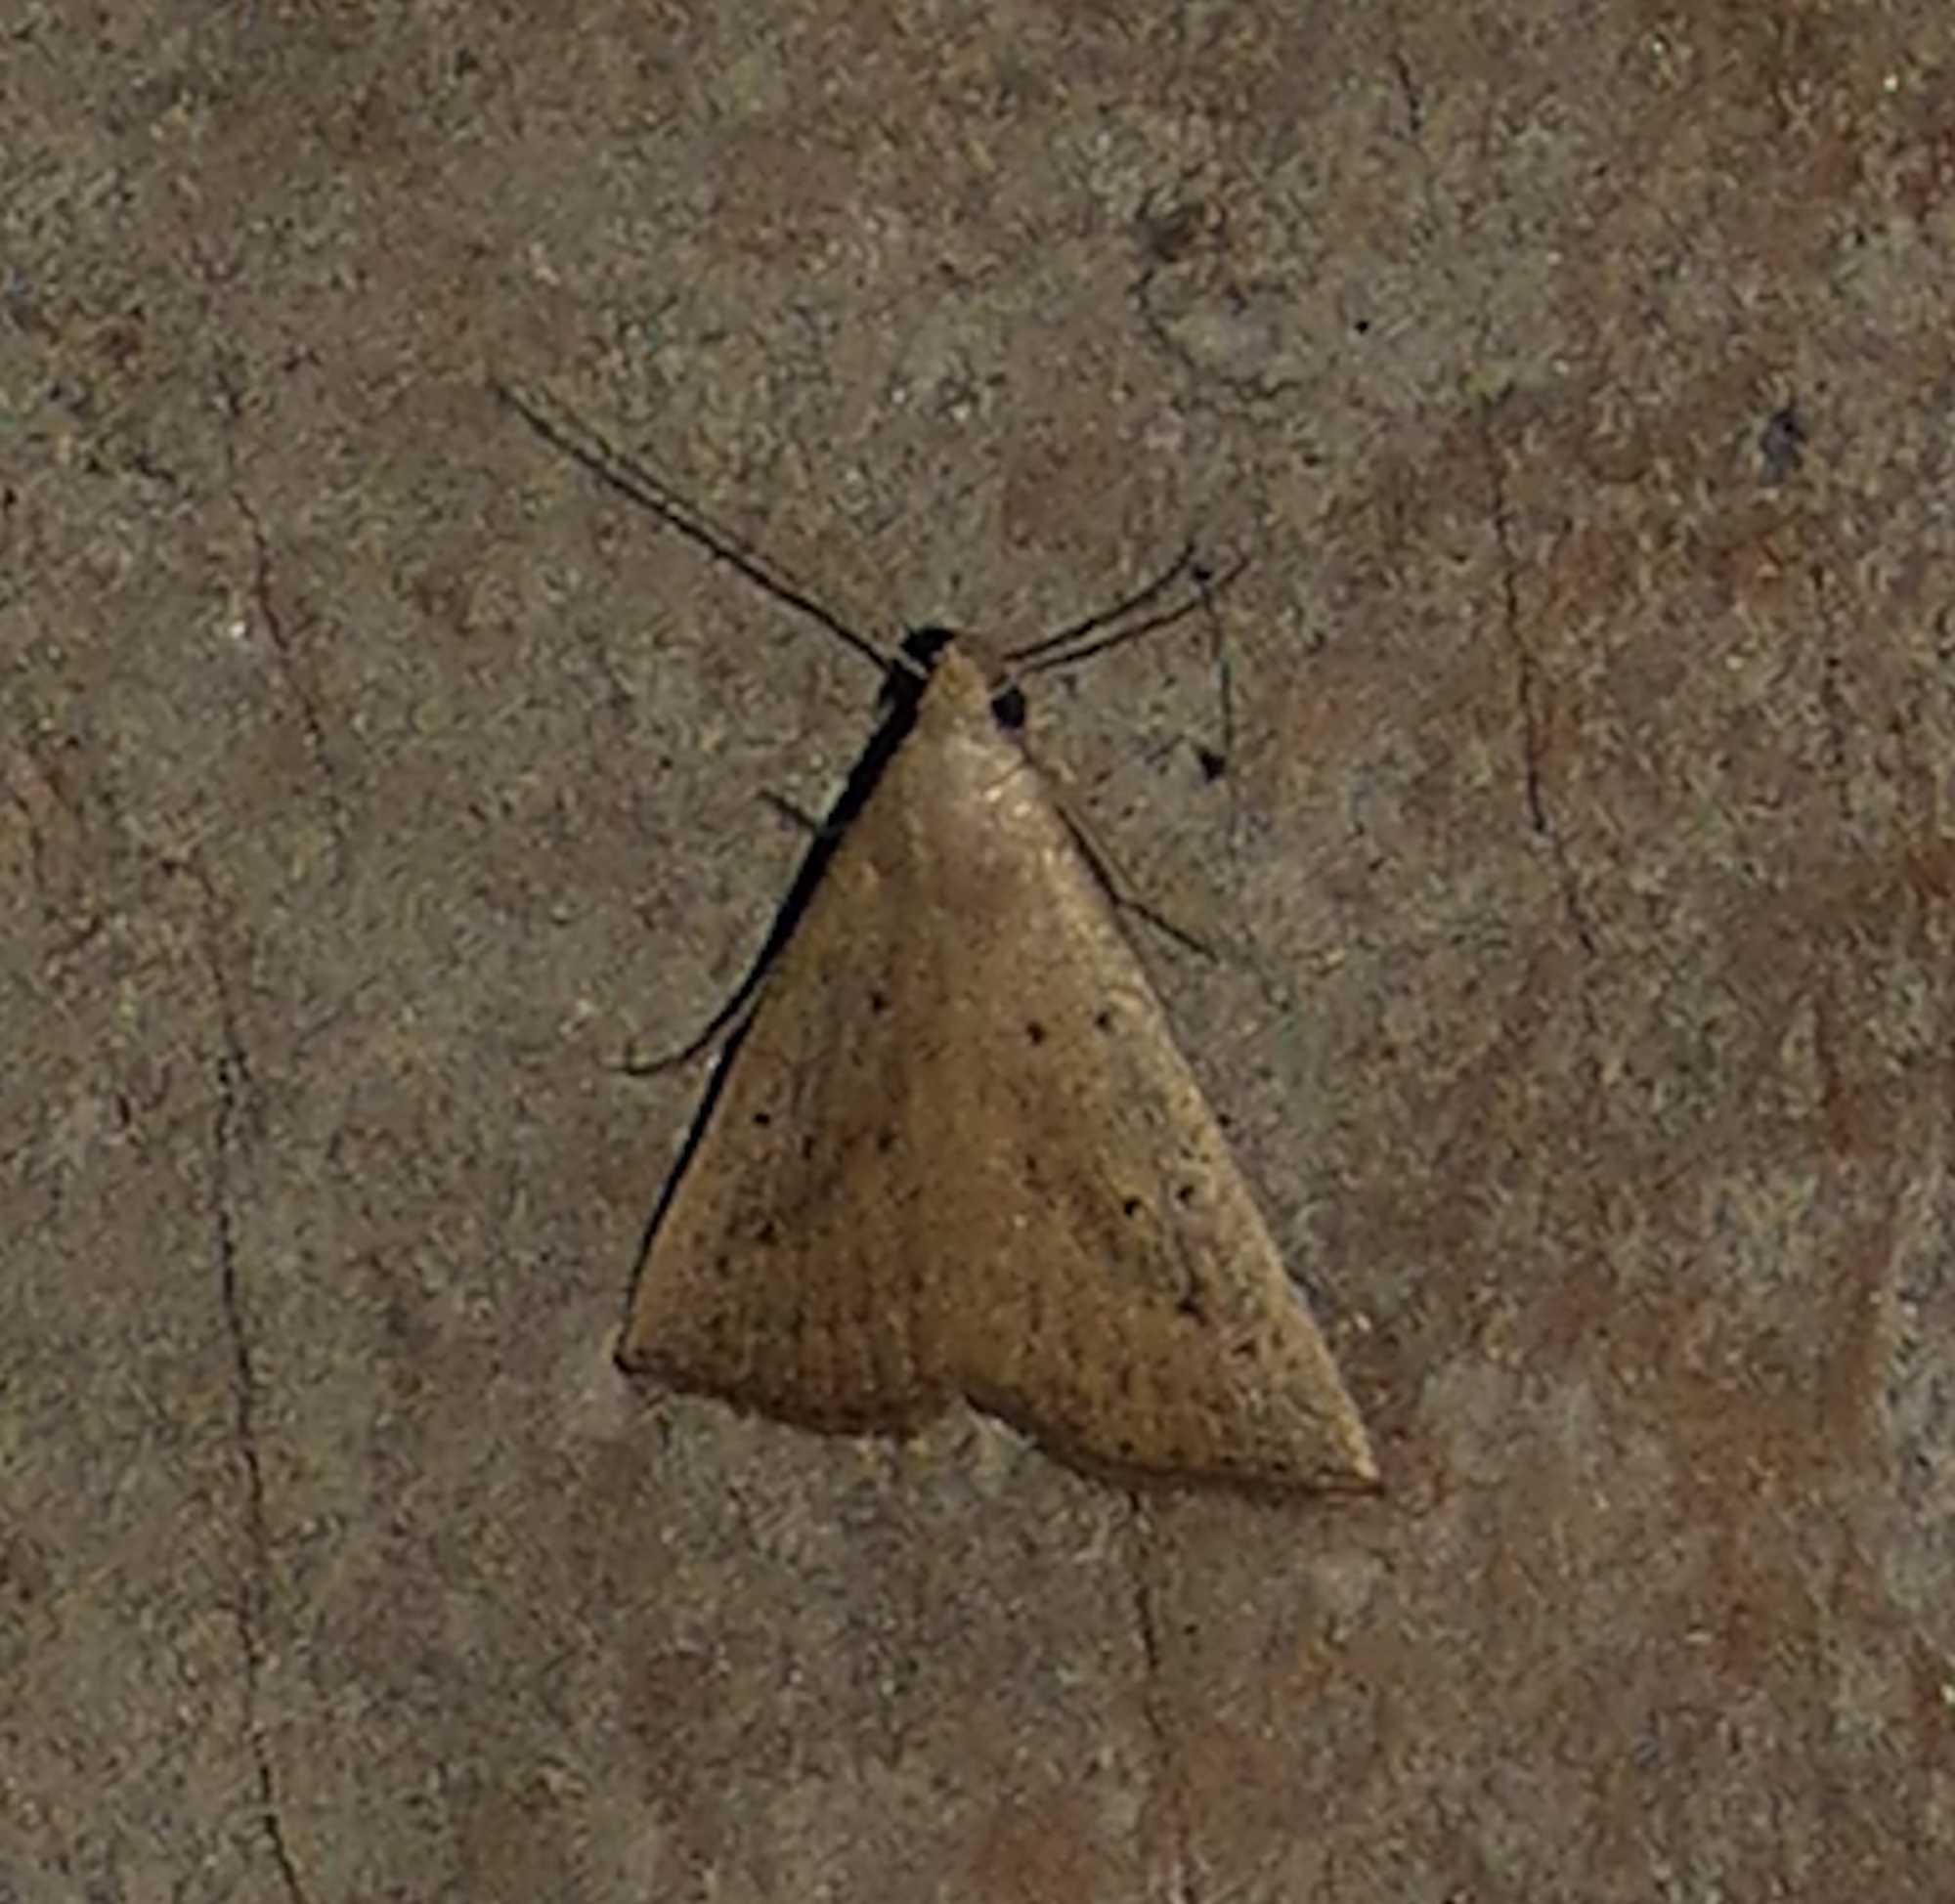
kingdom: Animalia
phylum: Arthropoda
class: Insecta
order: Lepidoptera
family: Erebidae
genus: Macrochilo
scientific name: Macrochilo louisiana
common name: Louisiana macrochilo
